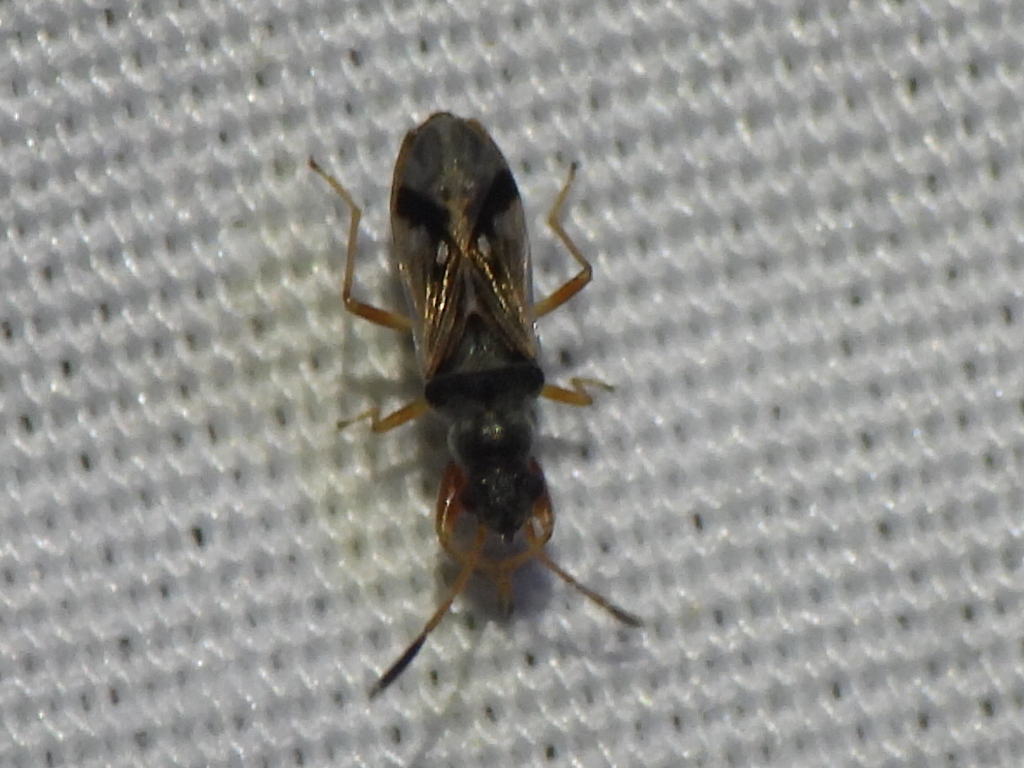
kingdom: Animalia
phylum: Arthropoda
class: Insecta
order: Hemiptera
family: Rhyparochromidae
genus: Pseudopachybrachius
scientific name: Pseudopachybrachius vinctus
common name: Dirt-colored seed bug
